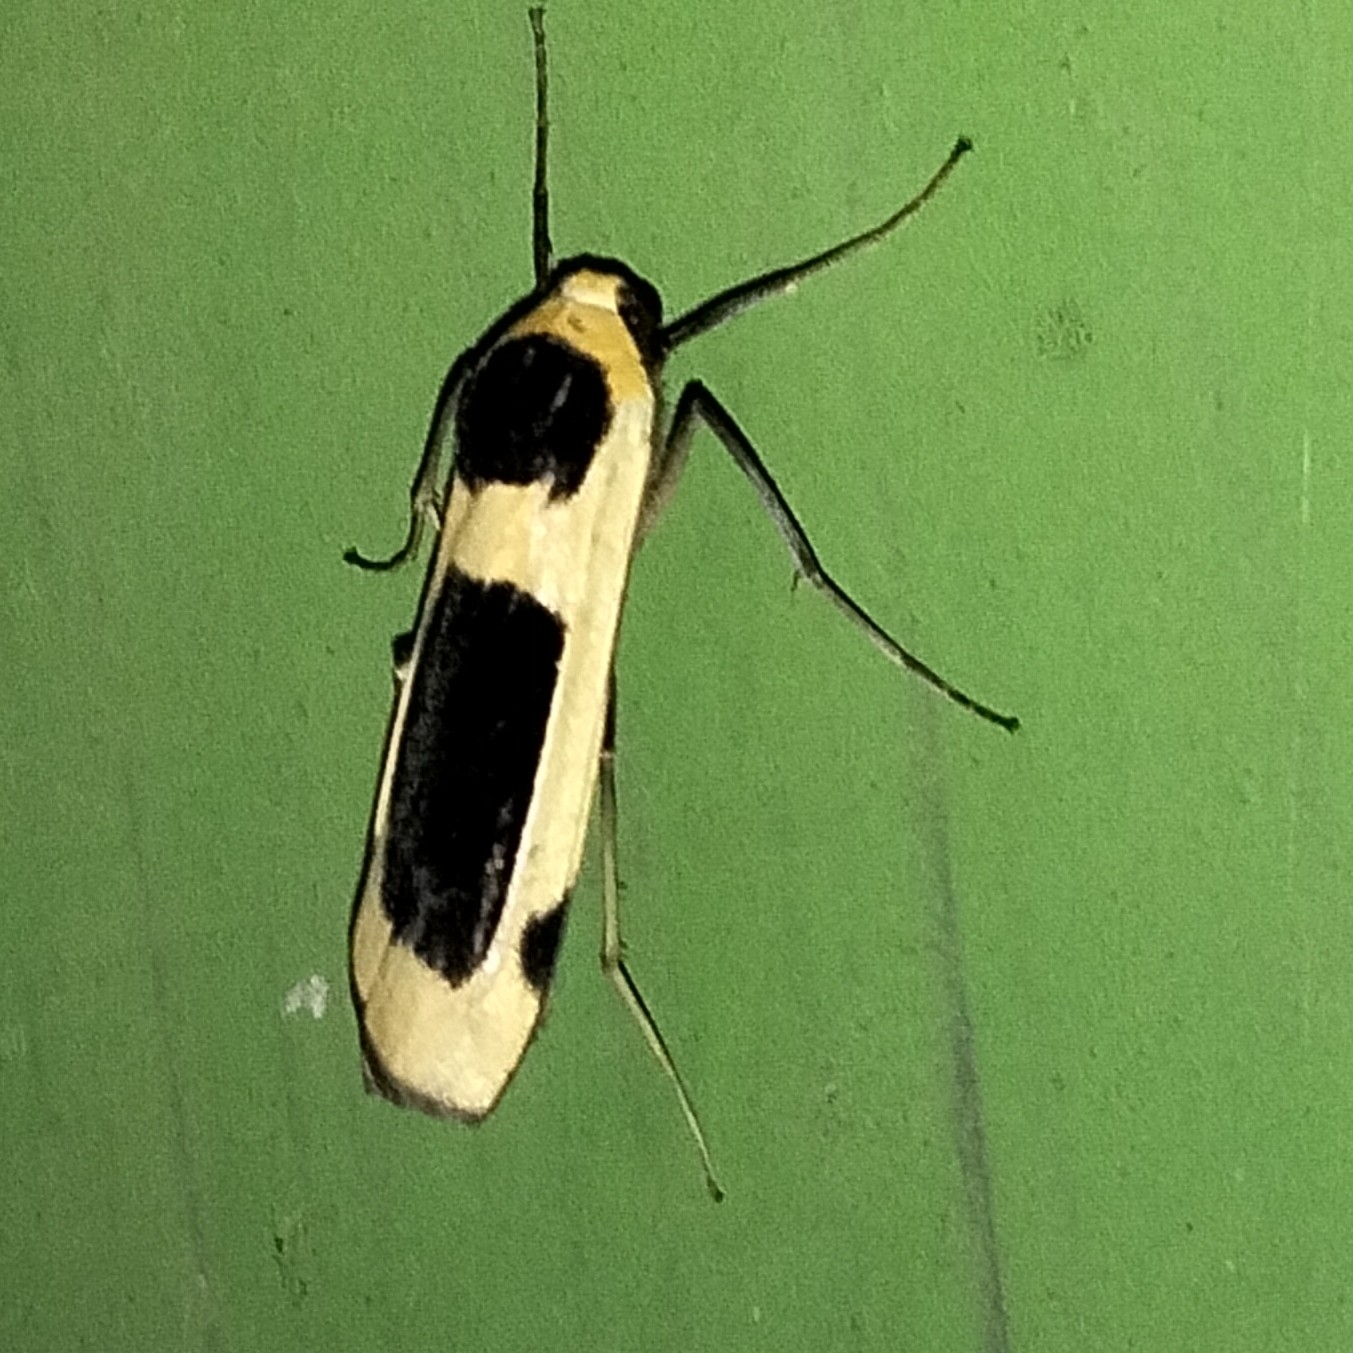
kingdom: Animalia
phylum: Arthropoda
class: Insecta
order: Lepidoptera
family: Erebidae
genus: Thysanoptyx
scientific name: Thysanoptyx pseudotetragona
